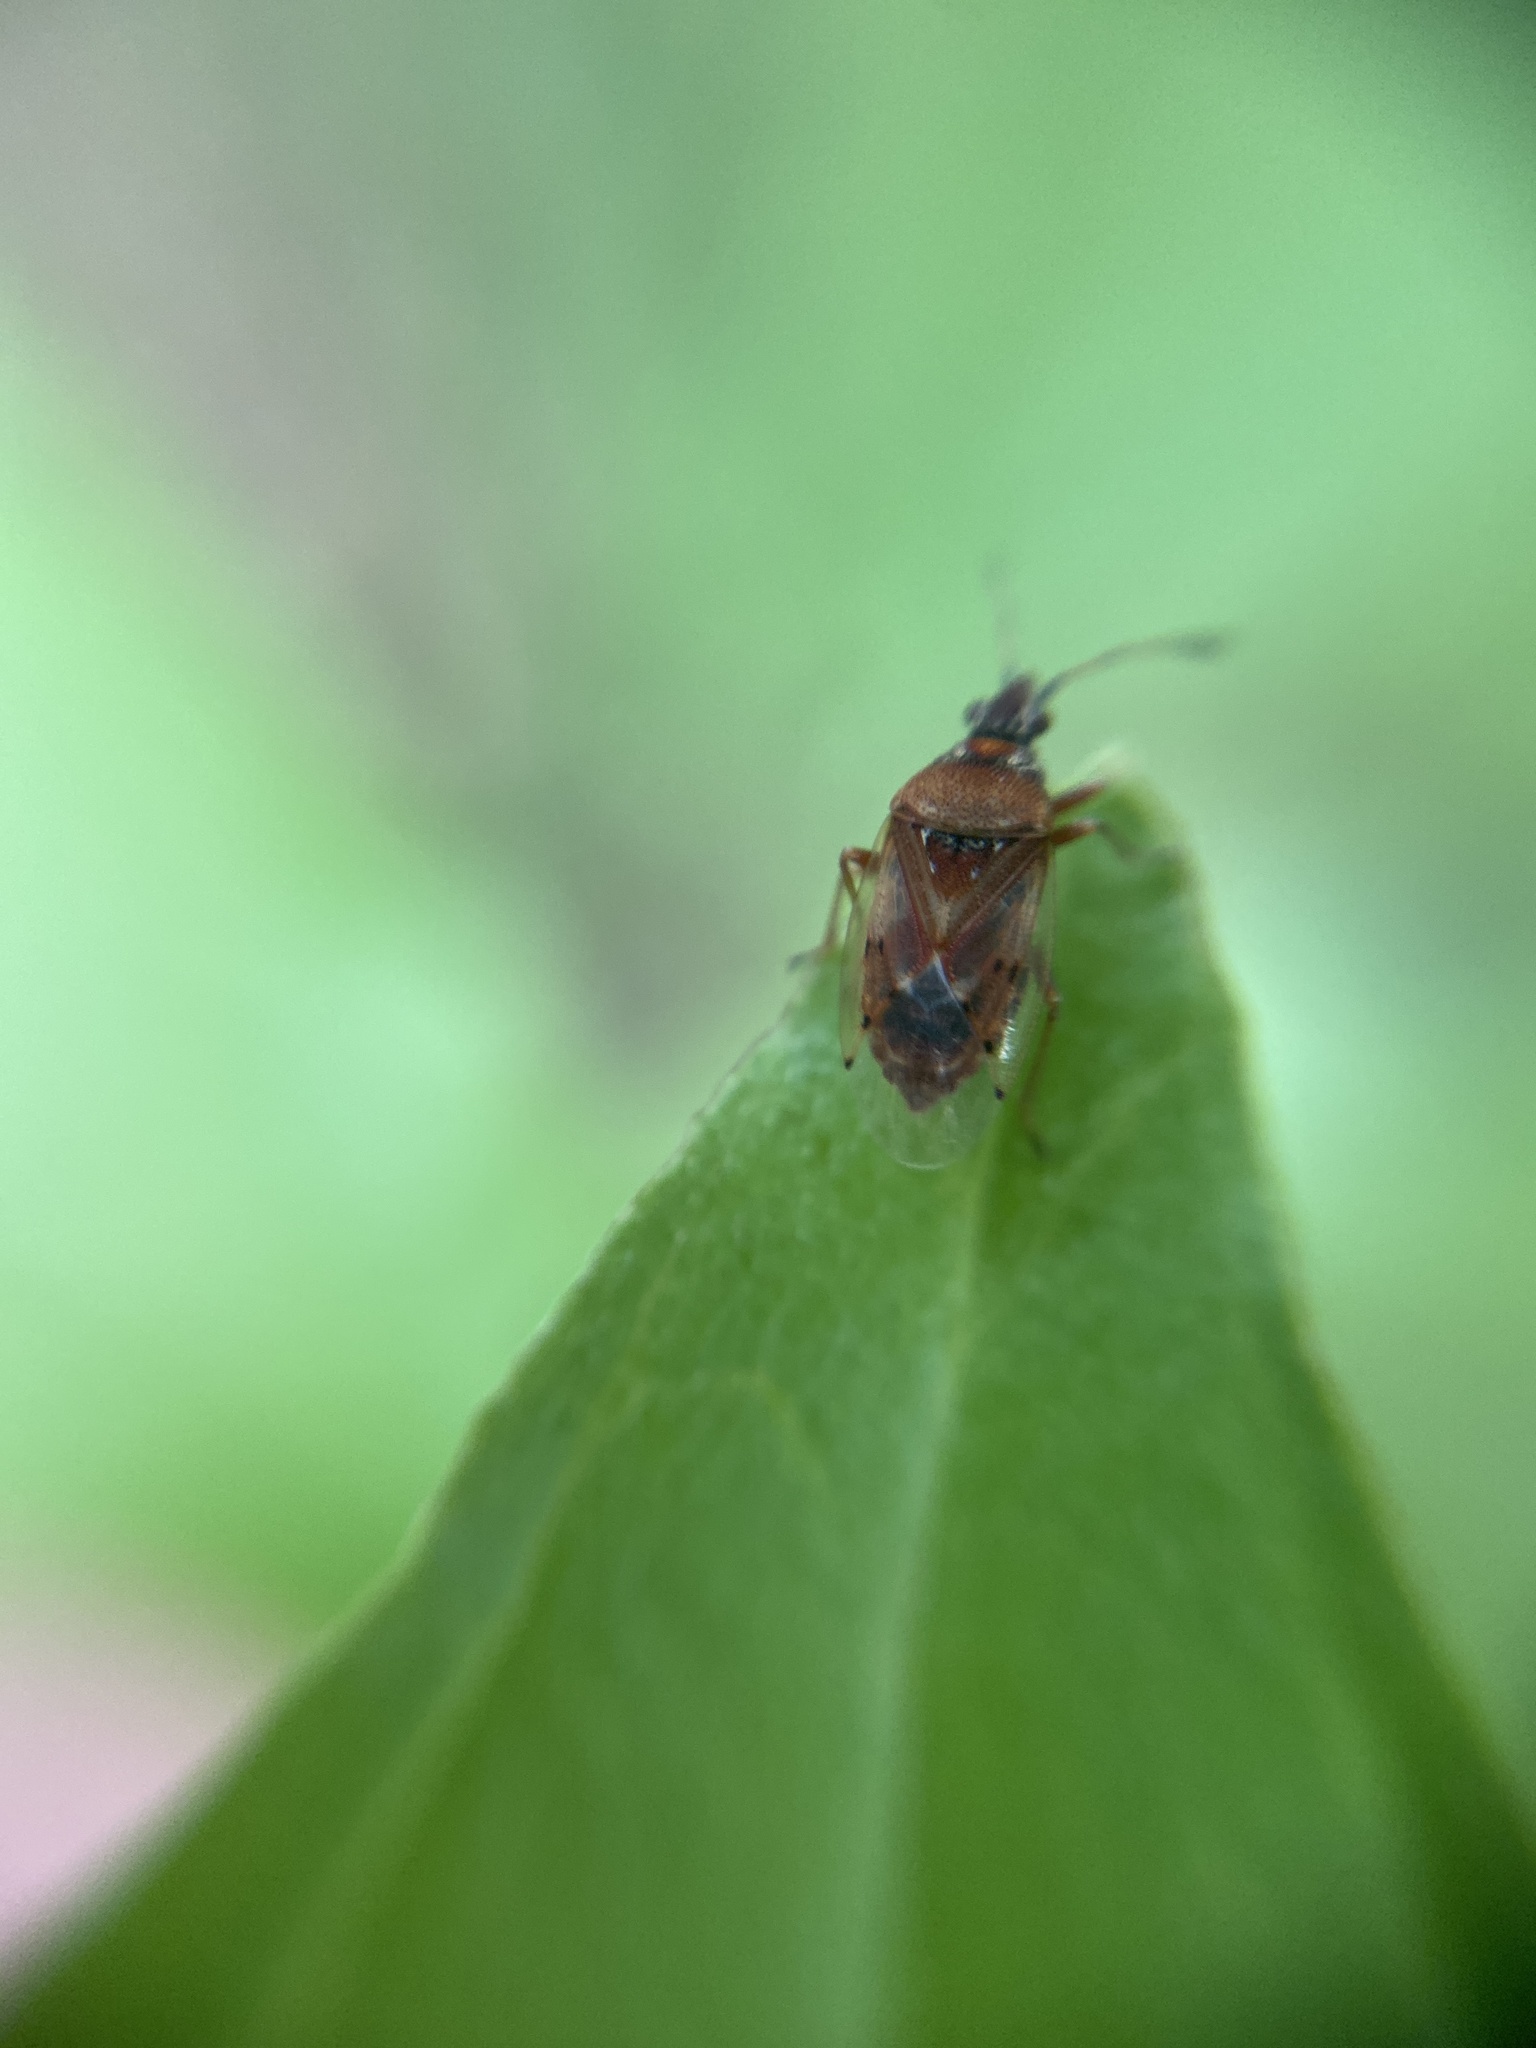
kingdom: Animalia
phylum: Arthropoda
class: Insecta
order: Hemiptera
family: Lygaeidae
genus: Kleidocerys
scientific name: Kleidocerys resedae
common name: Birch catkin bug
